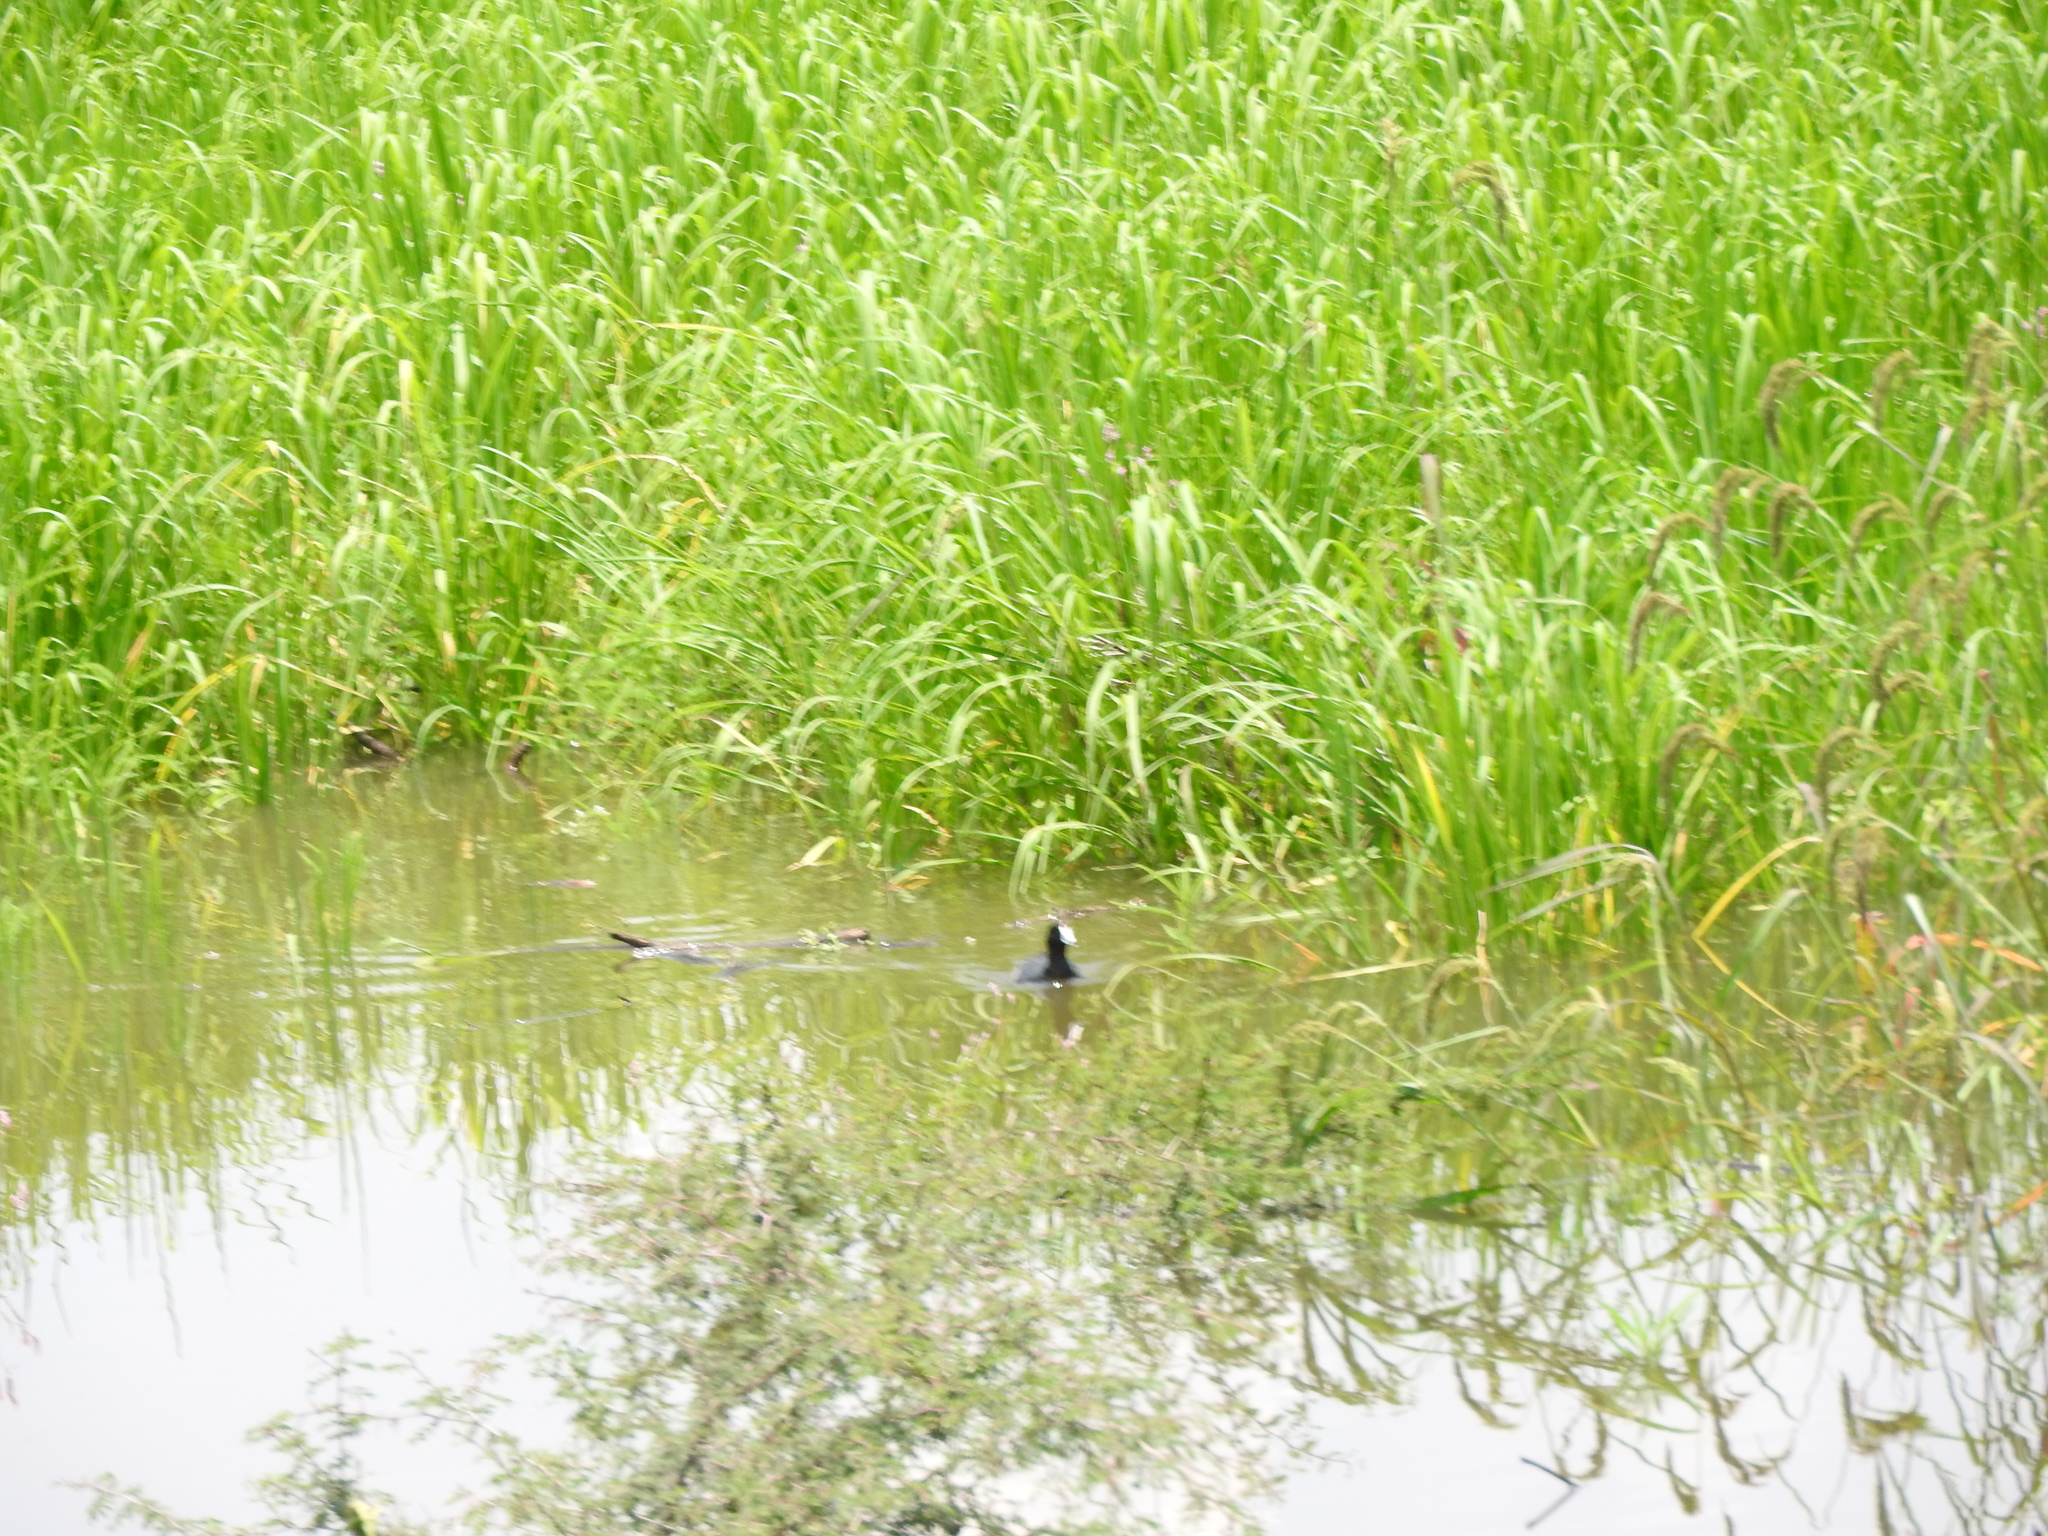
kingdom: Animalia
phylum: Chordata
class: Aves
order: Gruiformes
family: Rallidae
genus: Fulica
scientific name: Fulica americana
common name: American coot
